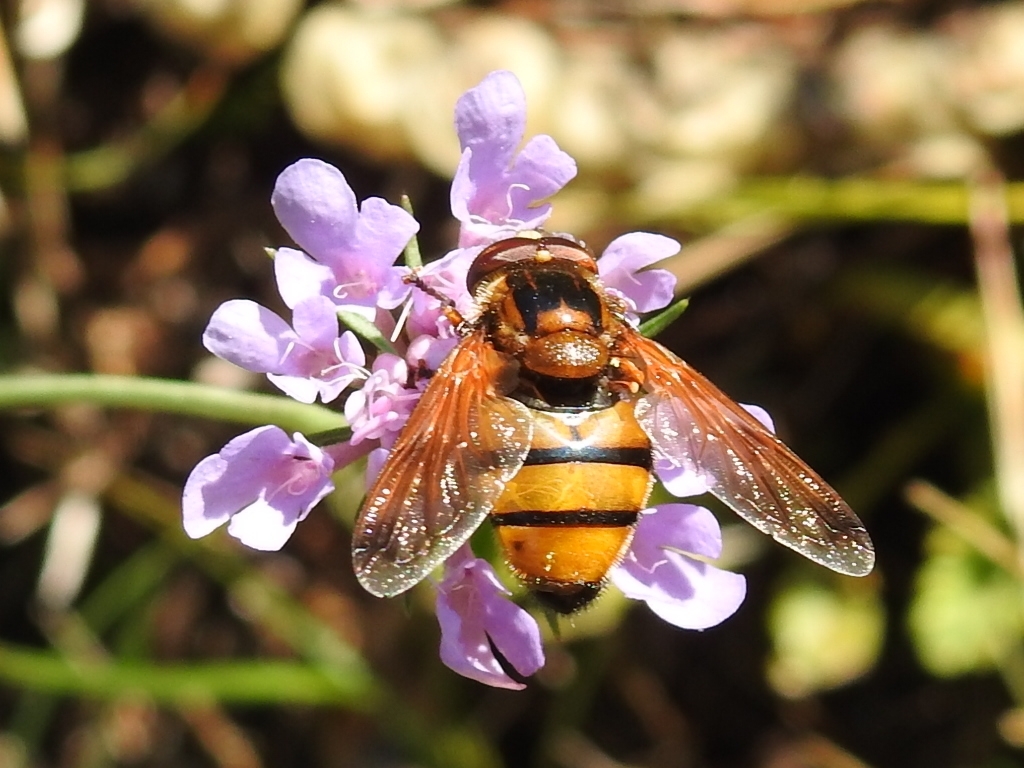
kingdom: Animalia
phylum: Arthropoda
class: Insecta
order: Diptera
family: Syrphidae
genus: Volucella
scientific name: Volucella inanis
